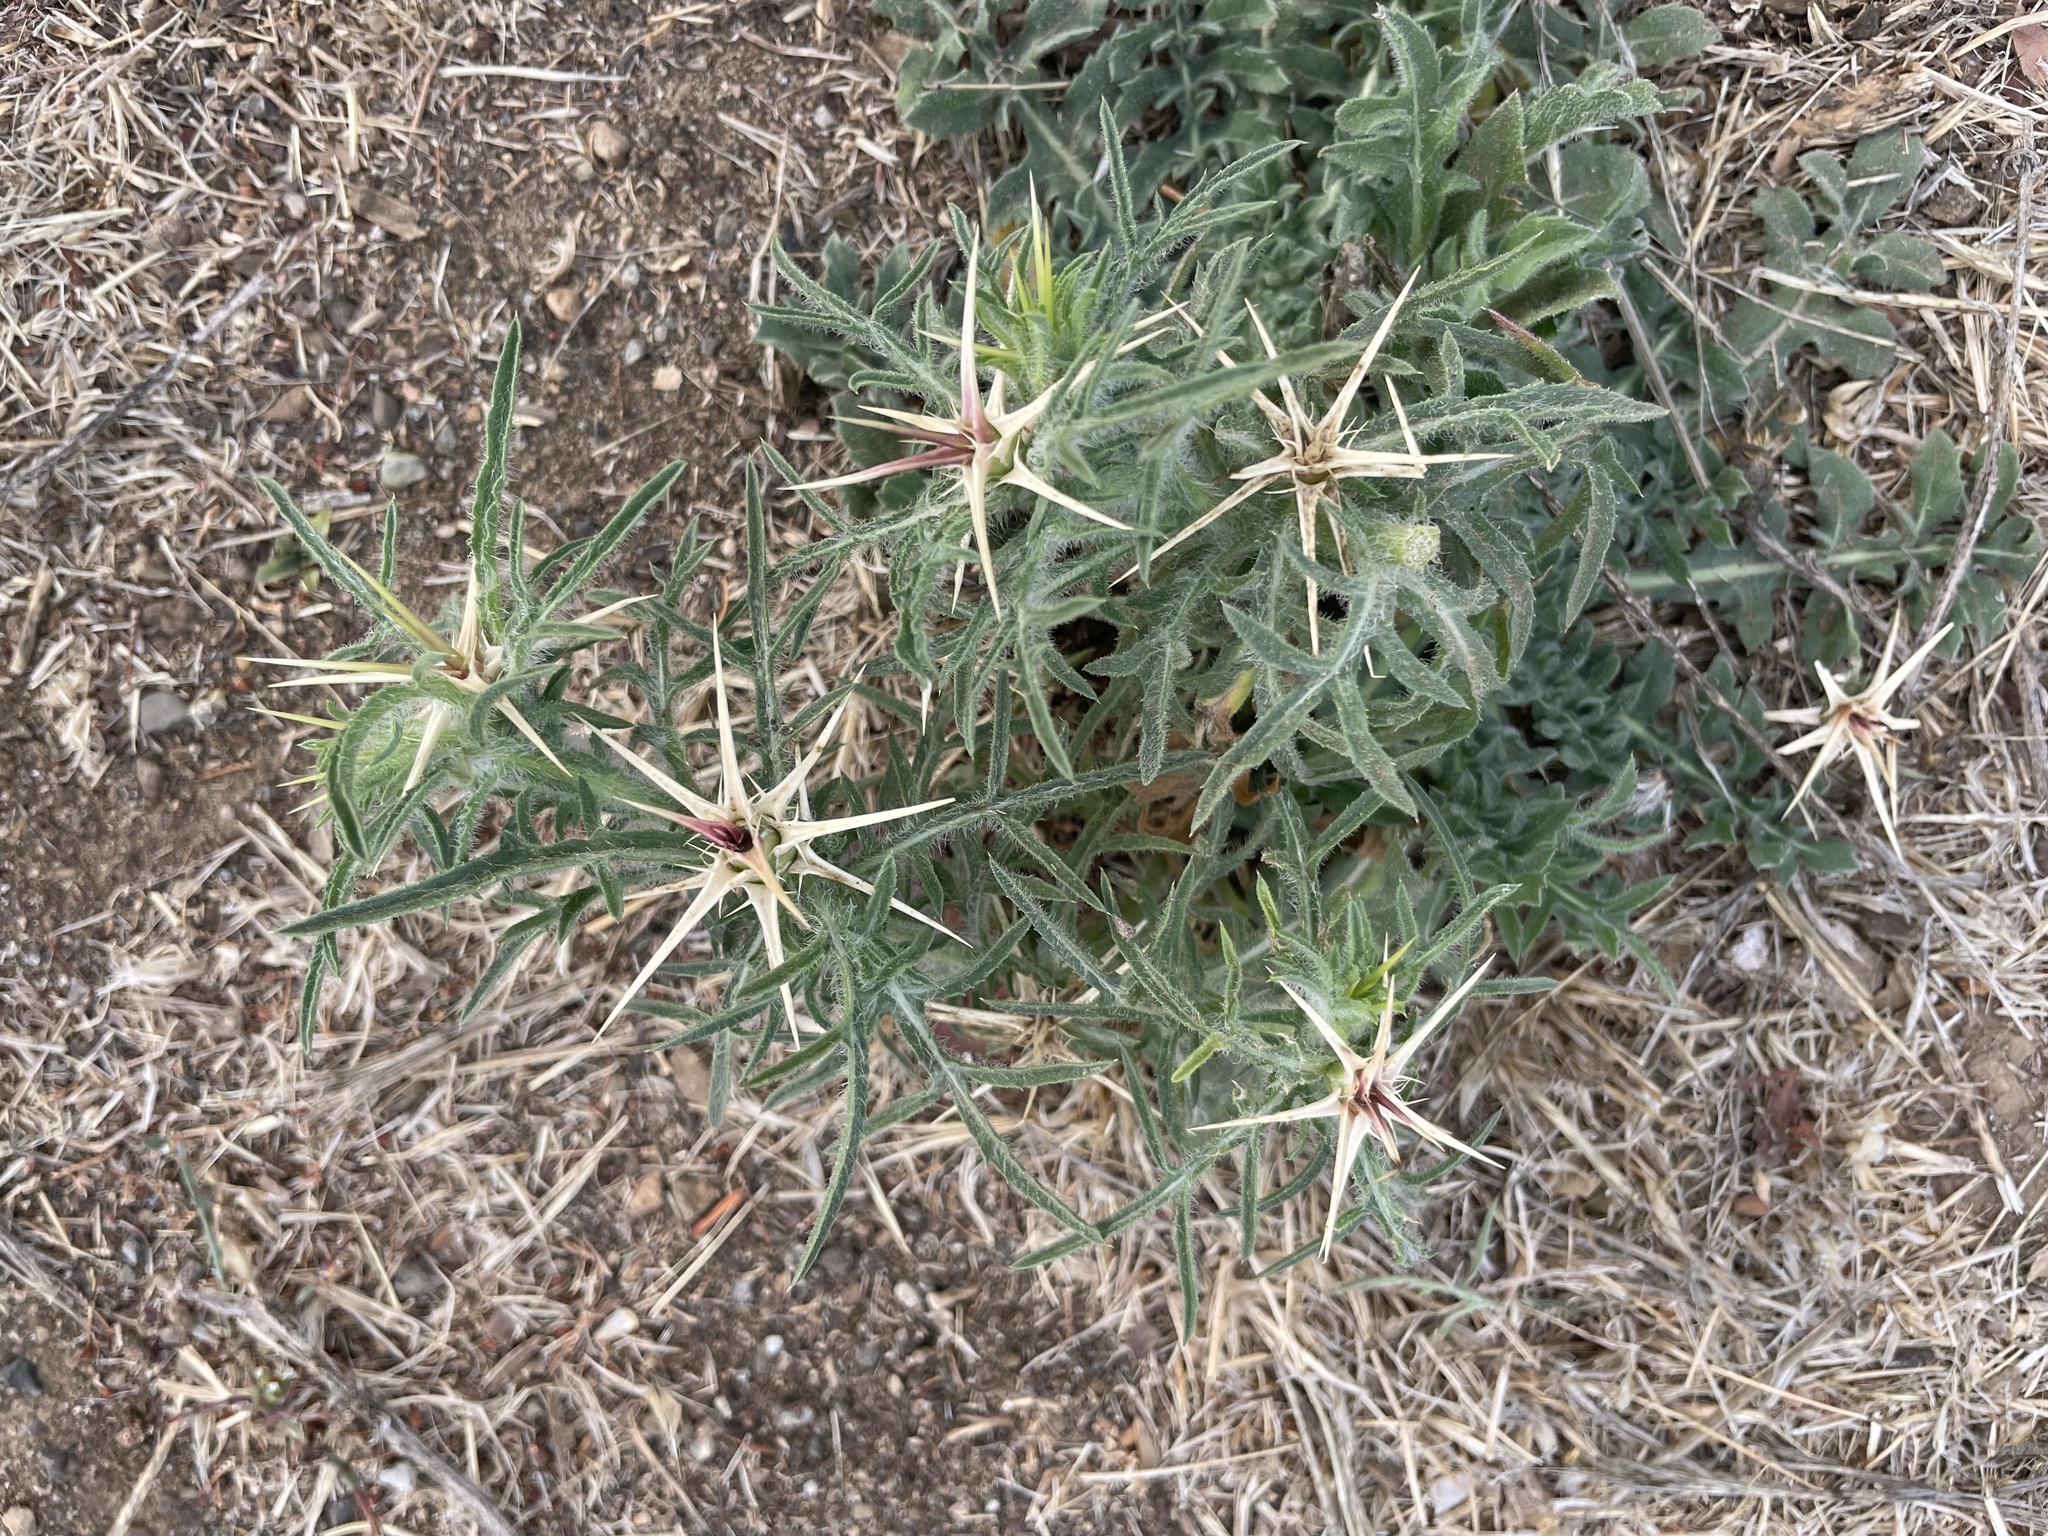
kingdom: Plantae
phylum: Tracheophyta
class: Magnoliopsida
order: Asterales
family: Asteraceae
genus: Centaurea
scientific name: Centaurea calcitrapa
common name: Red star-thistle
